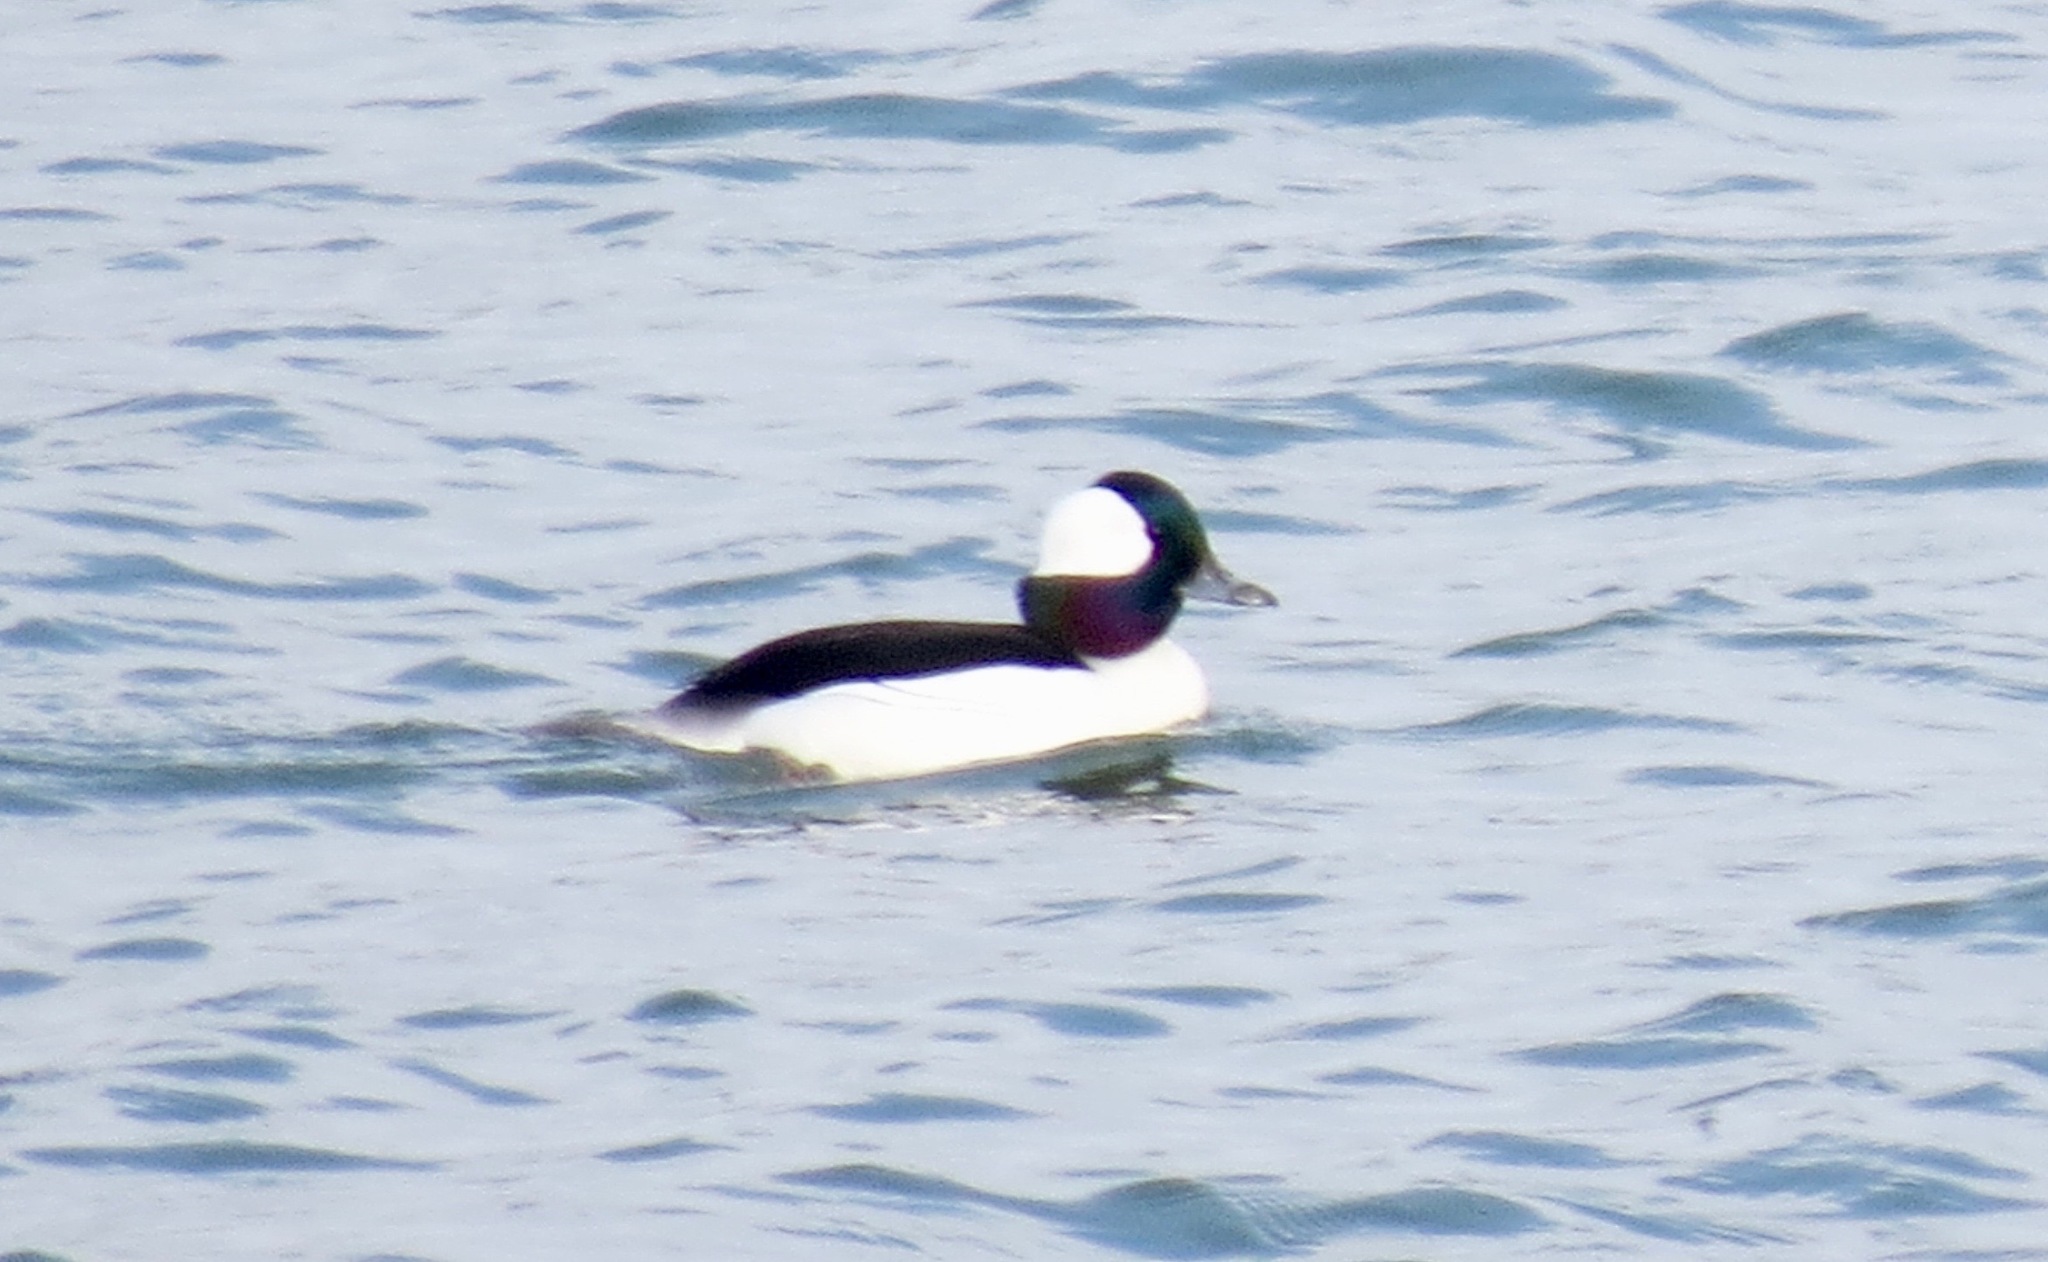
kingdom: Animalia
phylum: Chordata
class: Aves
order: Anseriformes
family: Anatidae
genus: Bucephala
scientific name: Bucephala albeola
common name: Bufflehead
